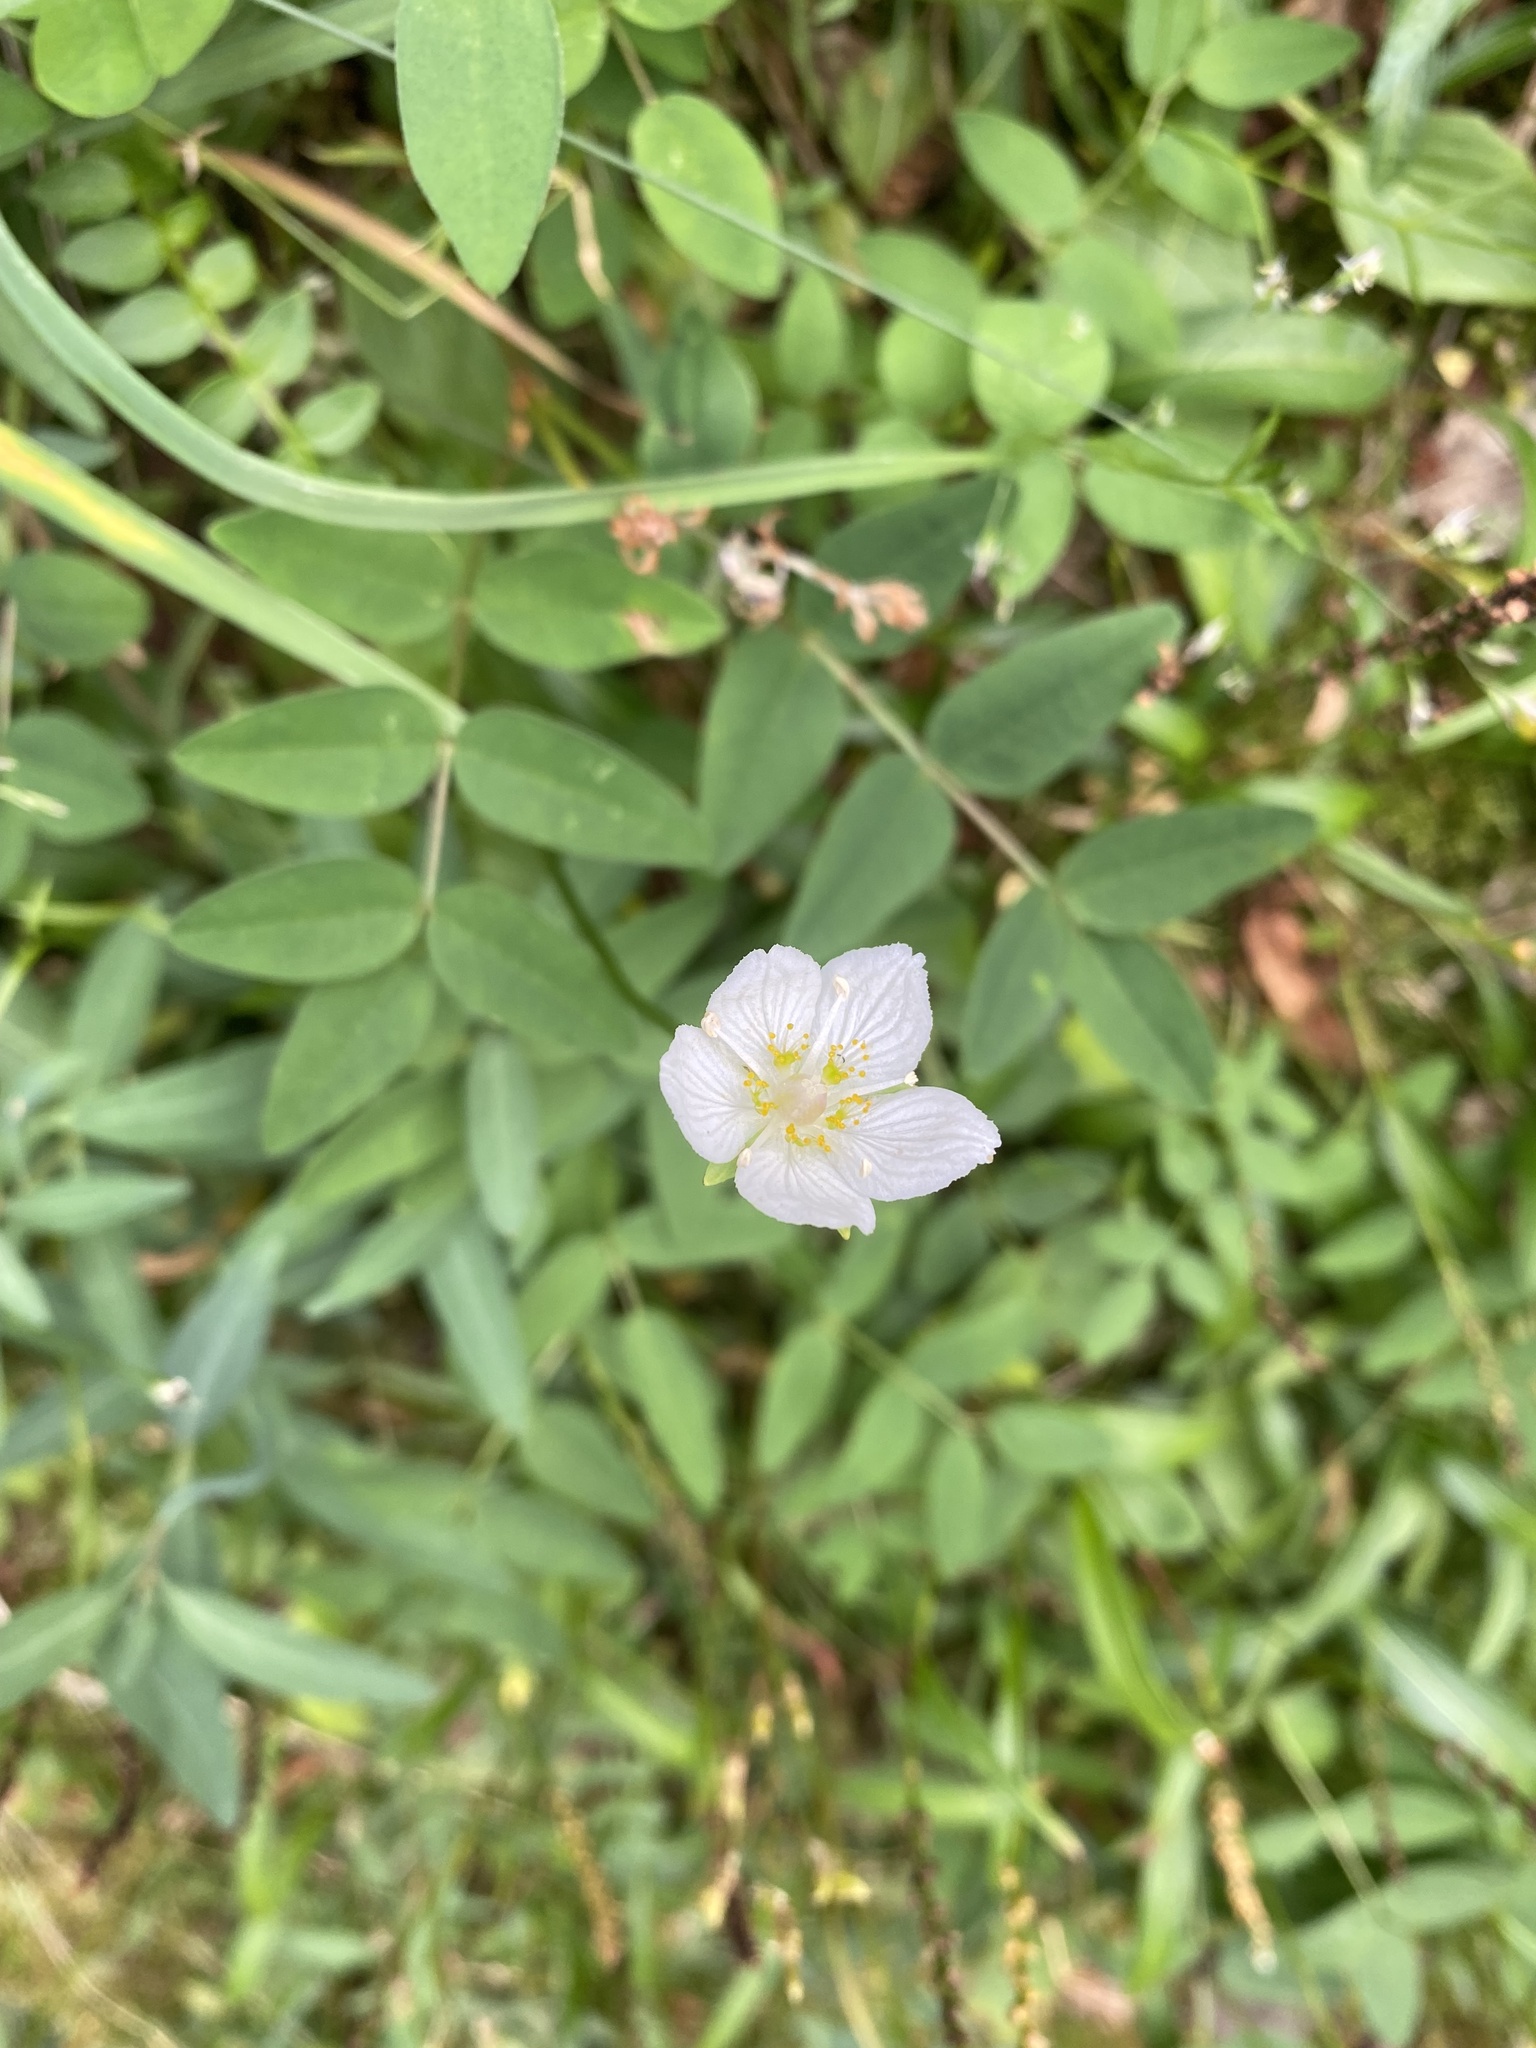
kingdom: Plantae
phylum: Tracheophyta
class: Magnoliopsida
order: Celastrales
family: Parnassiaceae
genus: Parnassia
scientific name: Parnassia palustris
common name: Grass-of-parnassus
